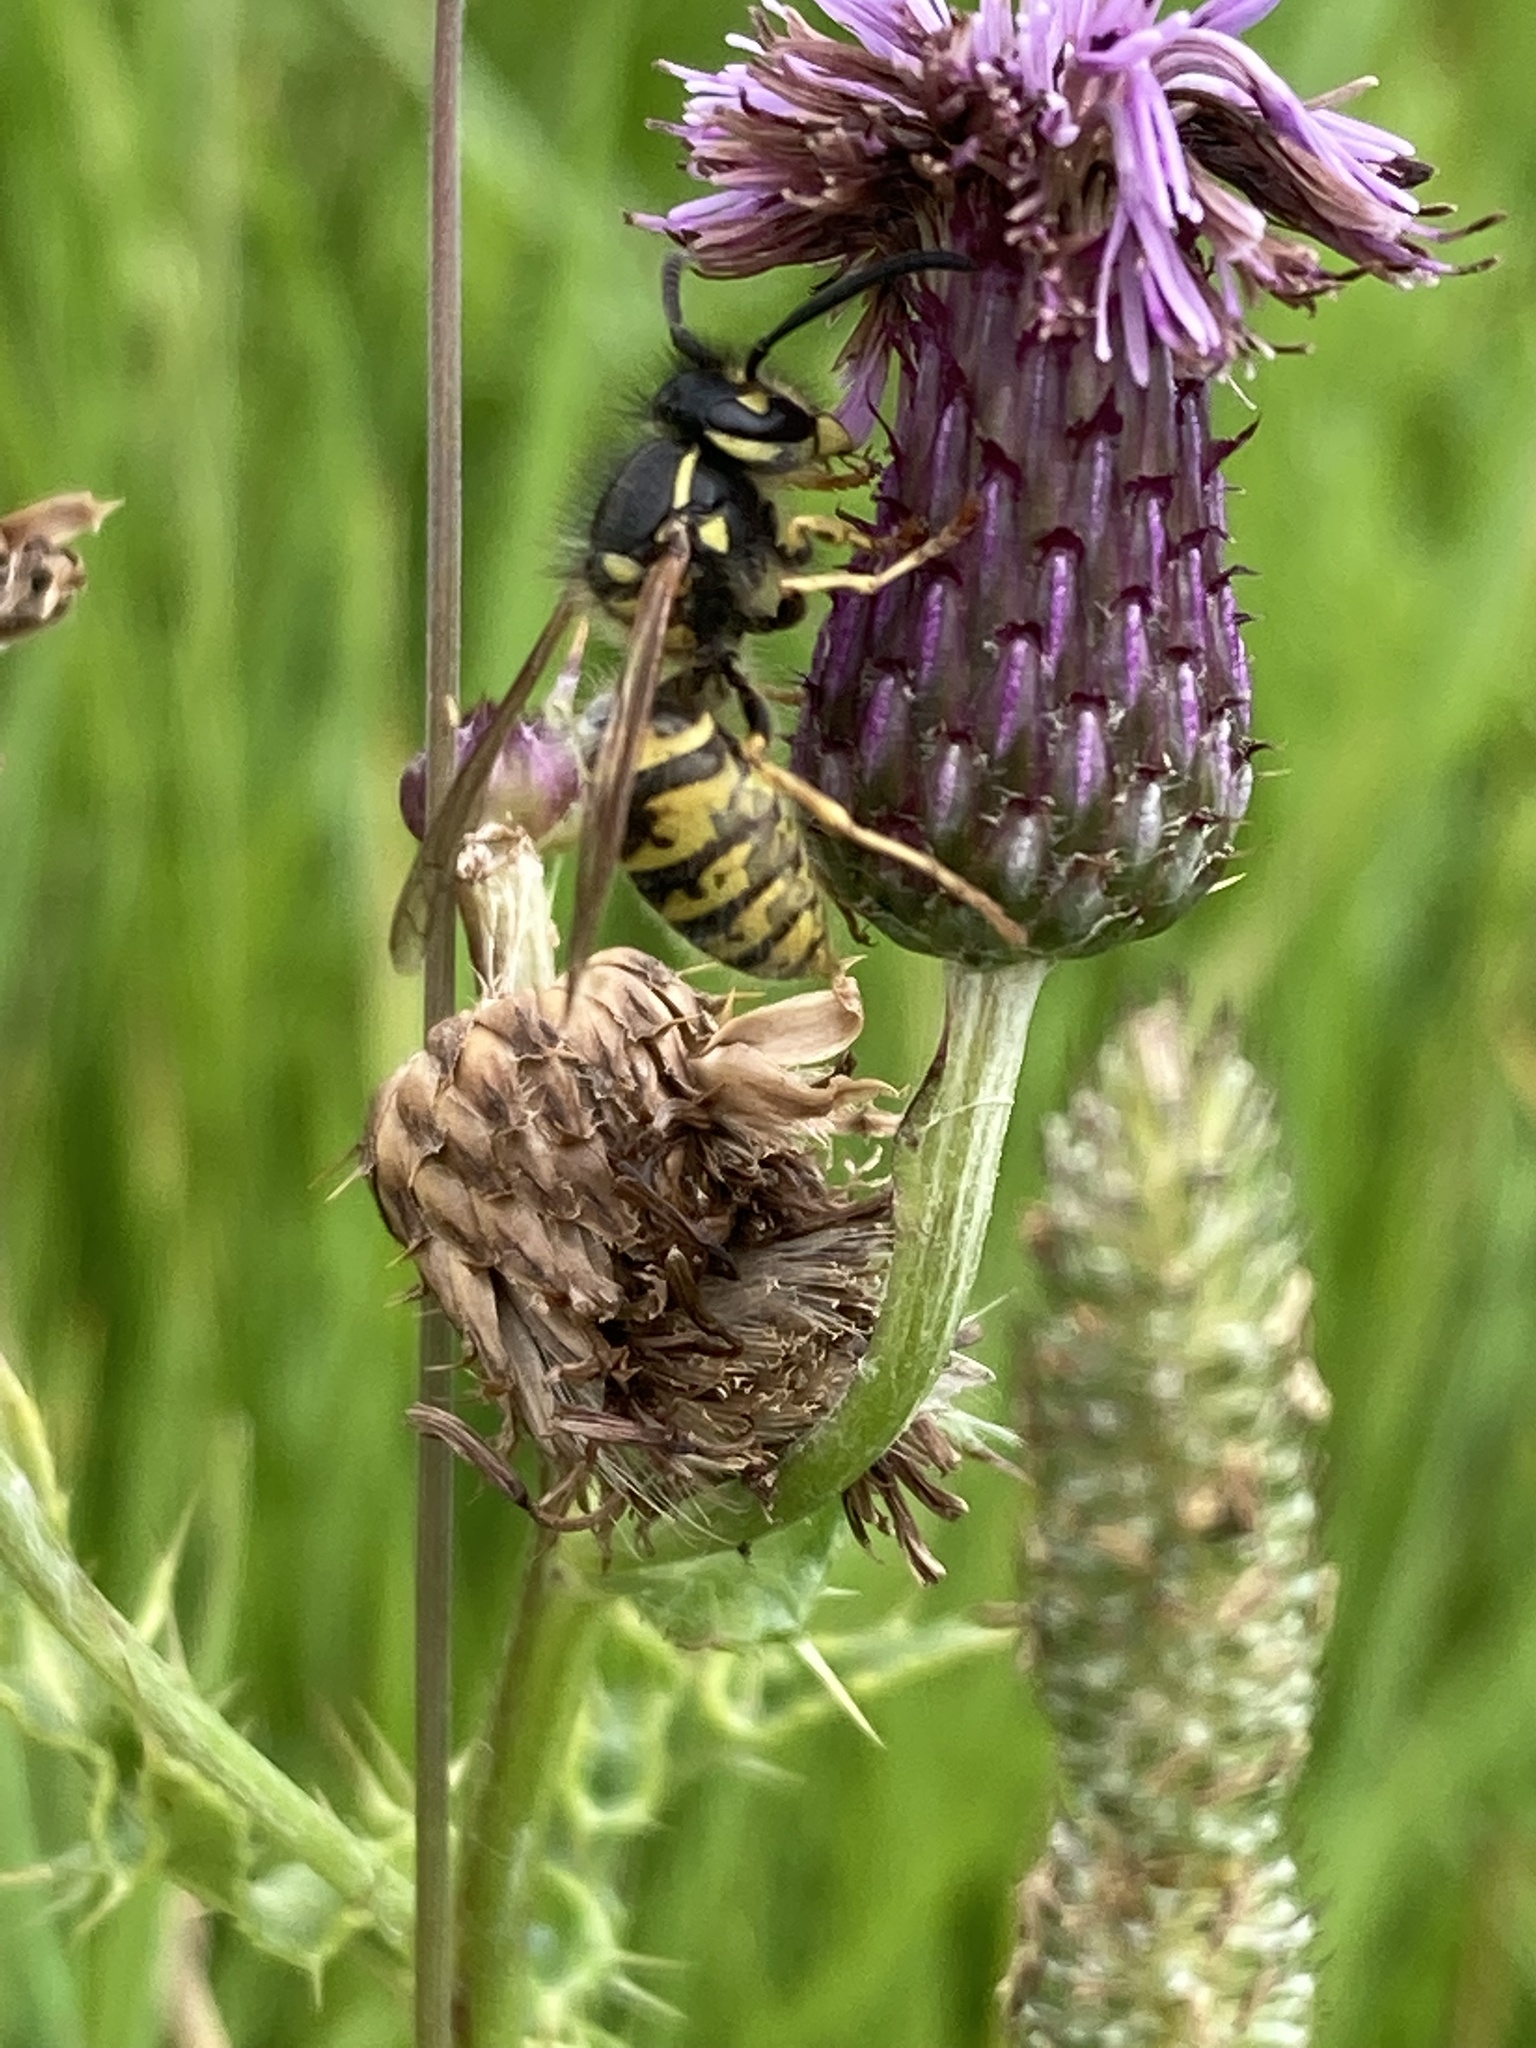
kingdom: Animalia
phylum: Arthropoda
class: Insecta
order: Hymenoptera
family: Vespidae
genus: Vespula
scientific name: Vespula vulgaris
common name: Common wasp
